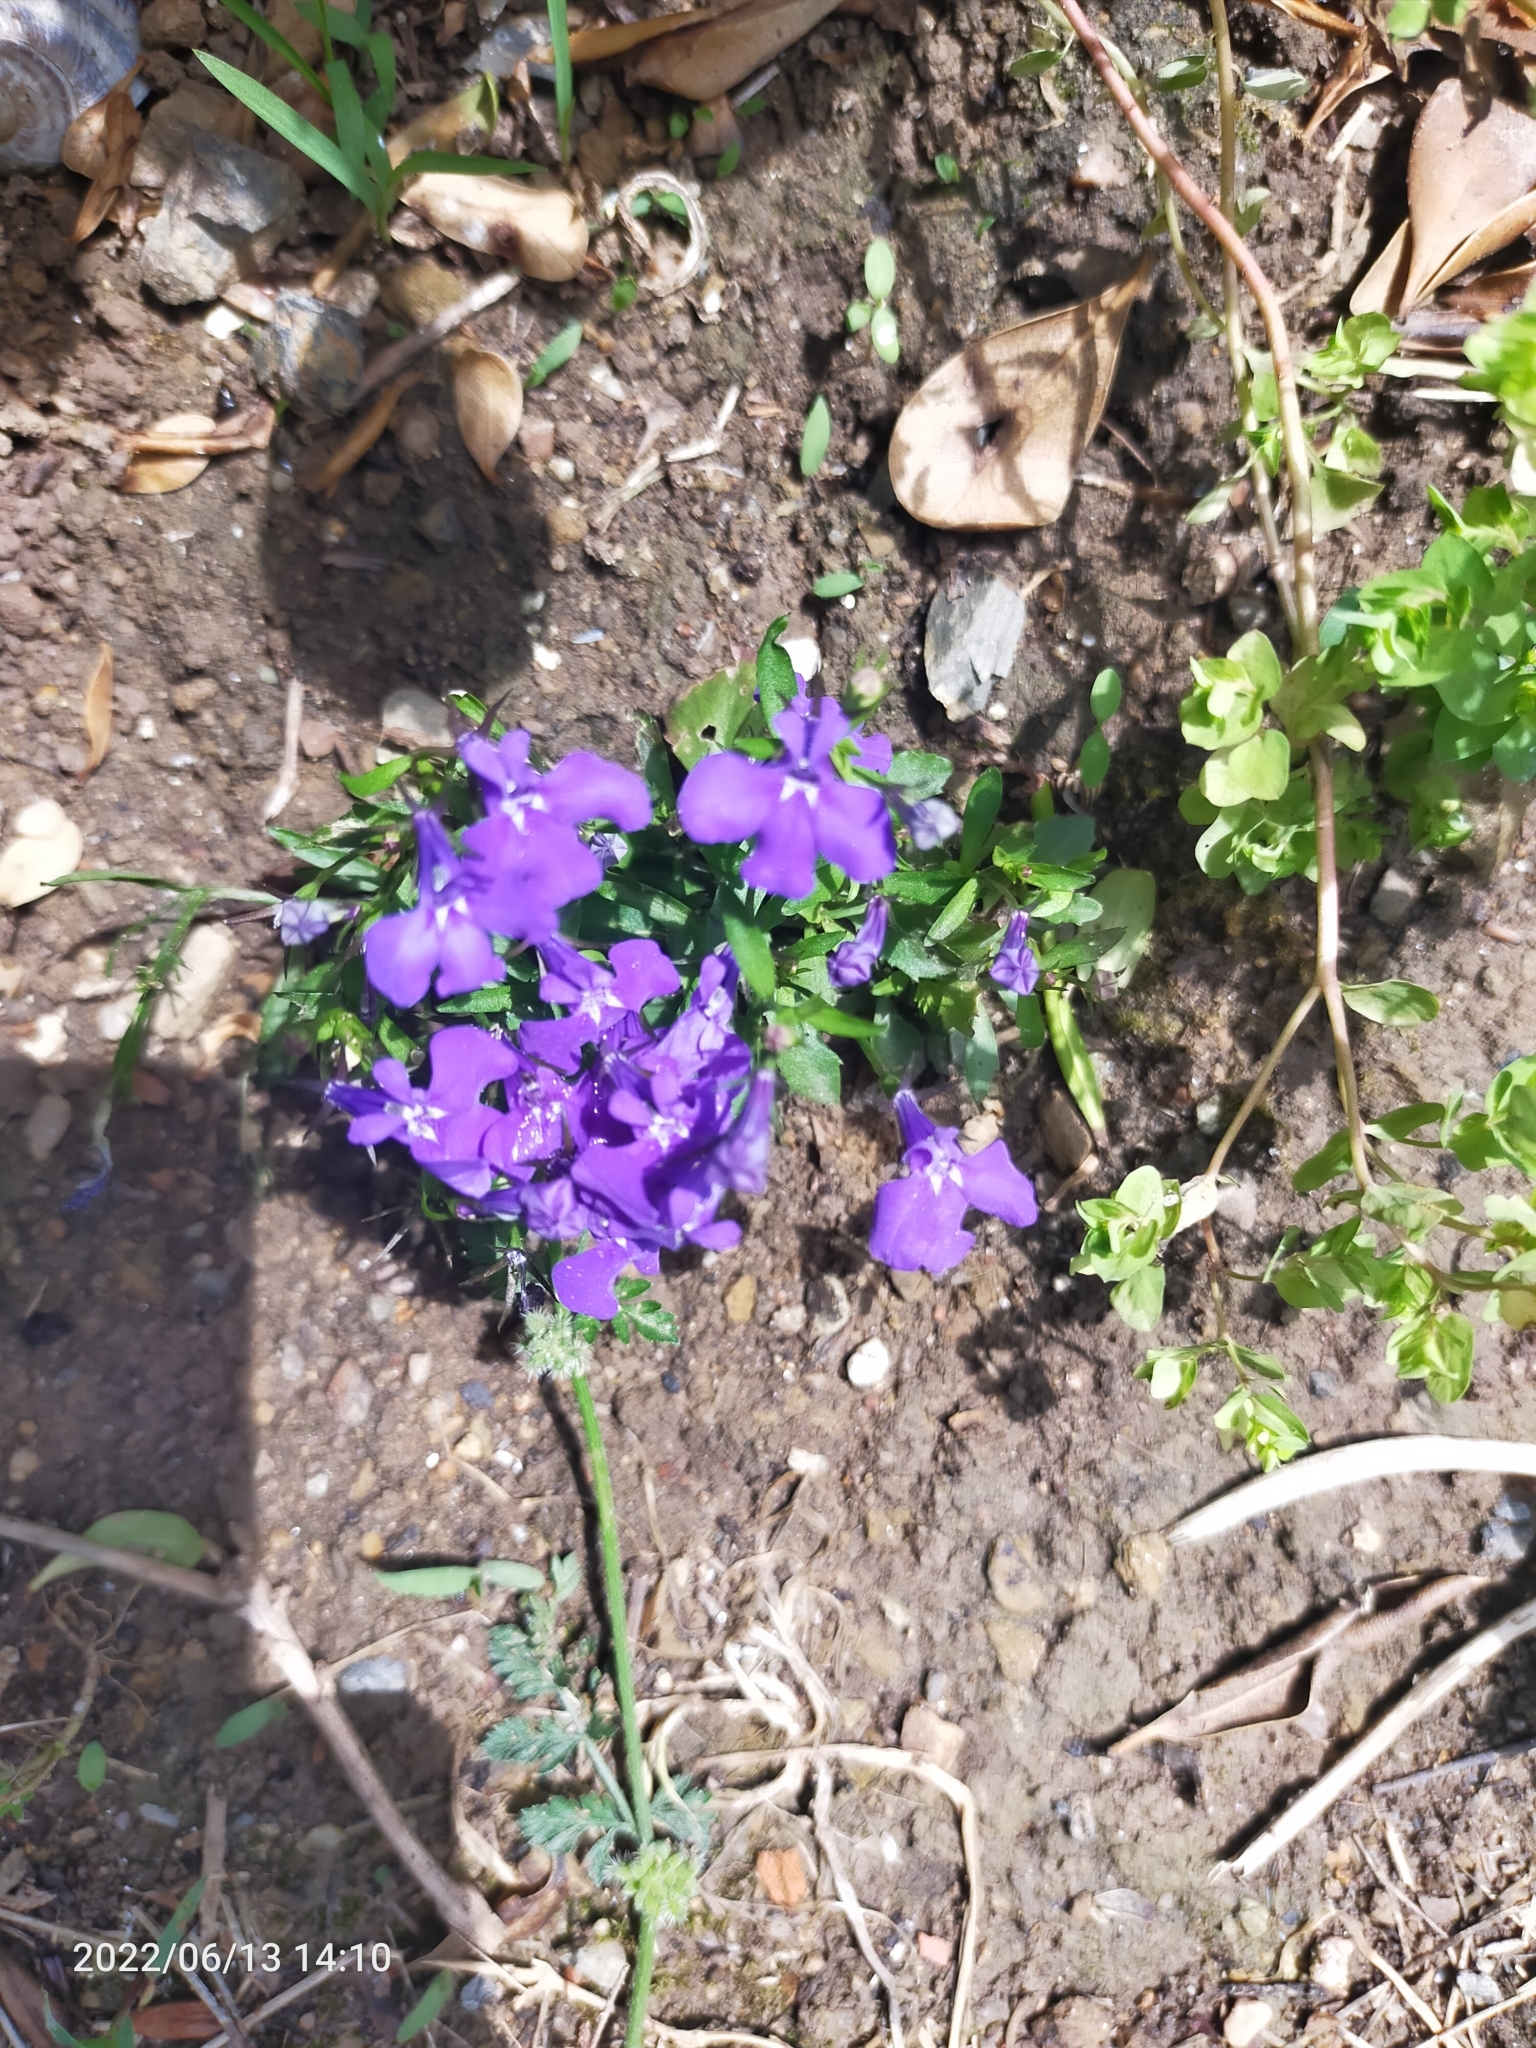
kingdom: Plantae
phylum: Tracheophyta
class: Magnoliopsida
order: Asterales
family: Campanulaceae
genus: Lobelia
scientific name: Lobelia
